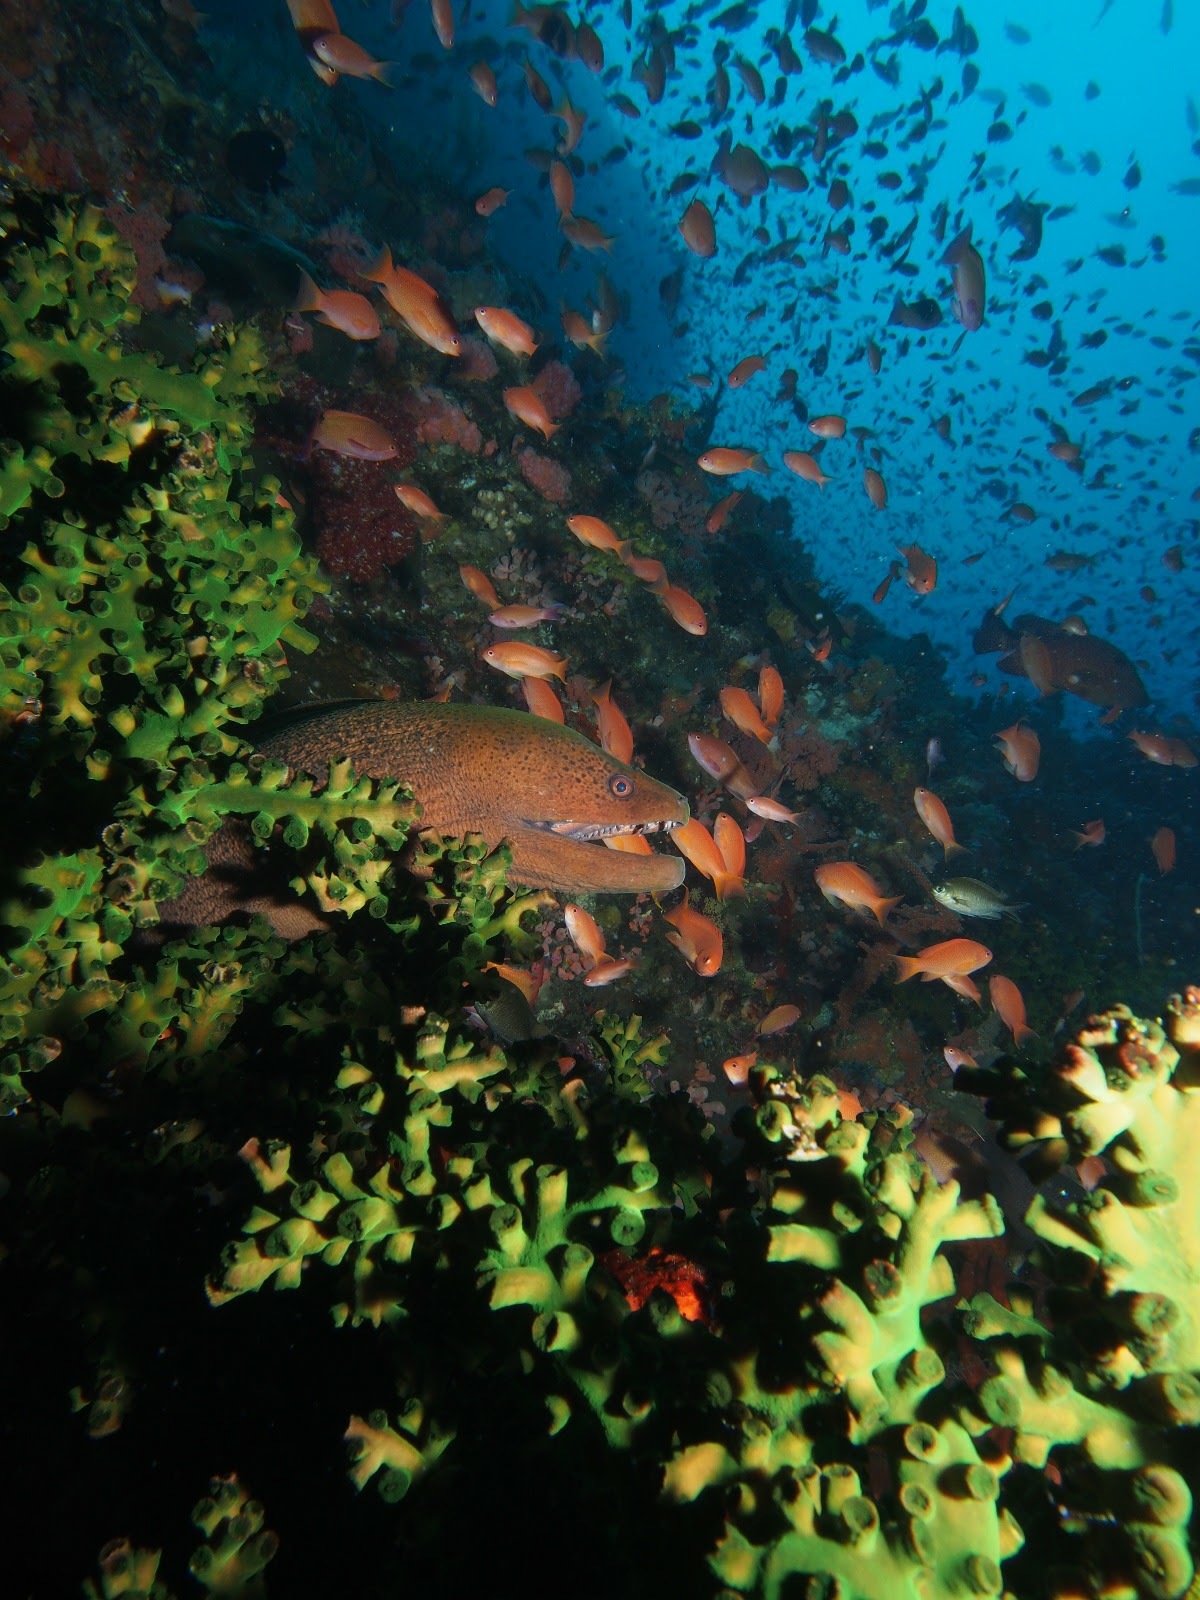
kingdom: Animalia
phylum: Chordata
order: Anguilliformes
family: Muraenidae
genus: Gymnothorax
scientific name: Gymnothorax javanicus
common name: Giant moray
